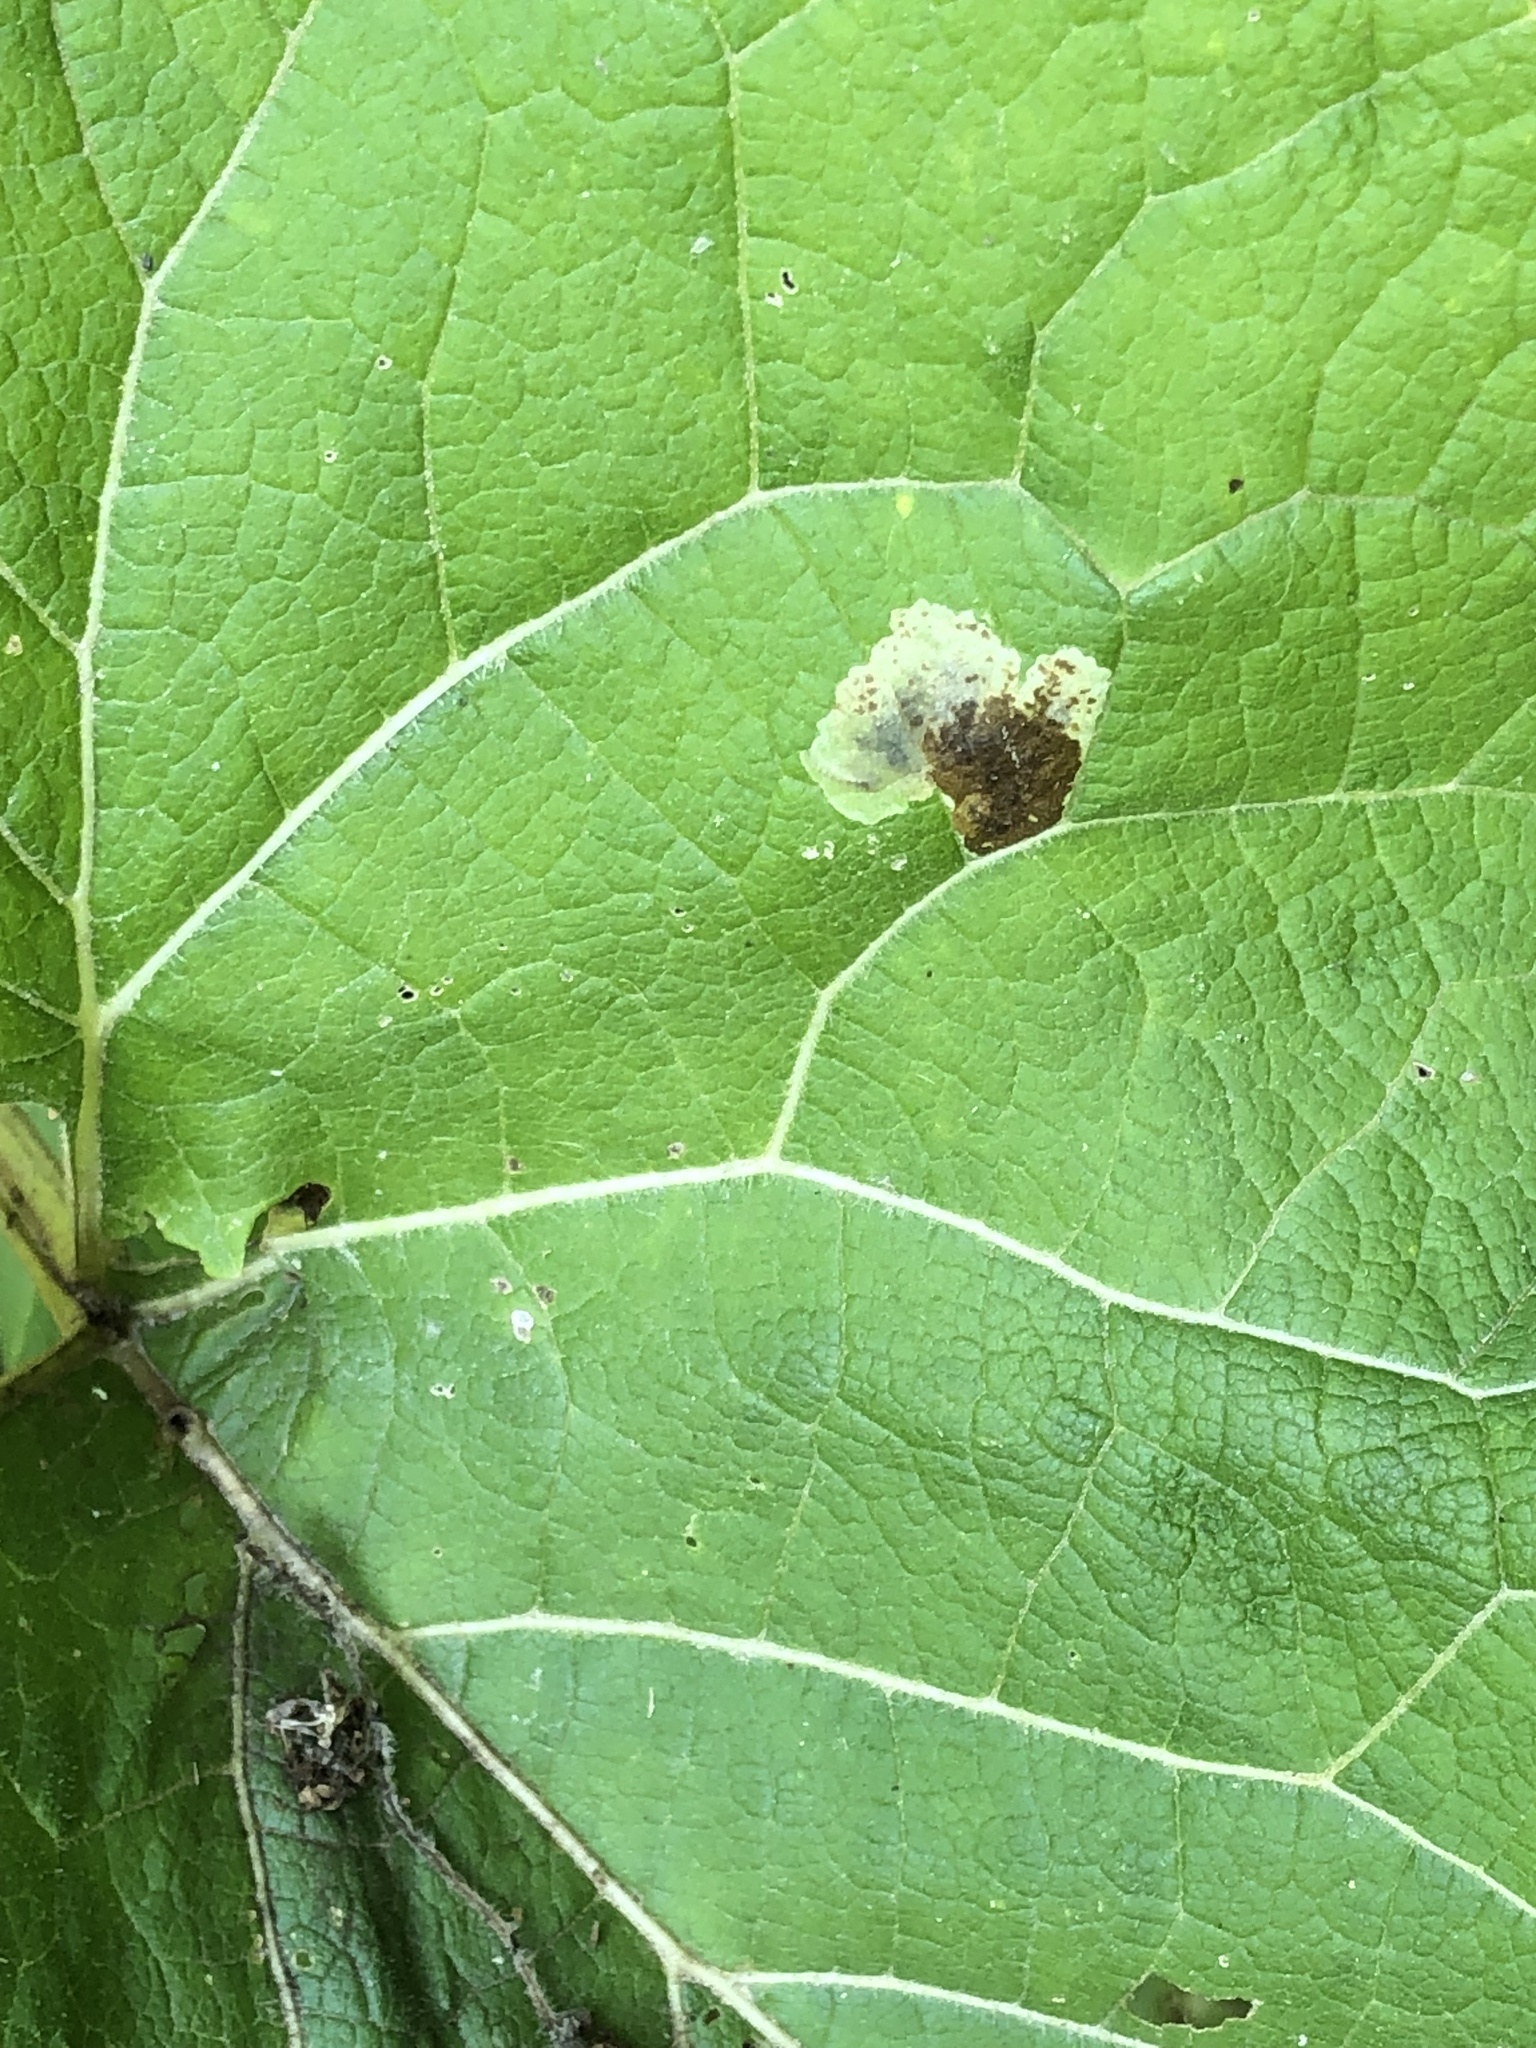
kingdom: Animalia
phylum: Arthropoda
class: Insecta
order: Diptera
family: Agromyzidae
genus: Calycomyza
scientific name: Calycomyza flavinotum
